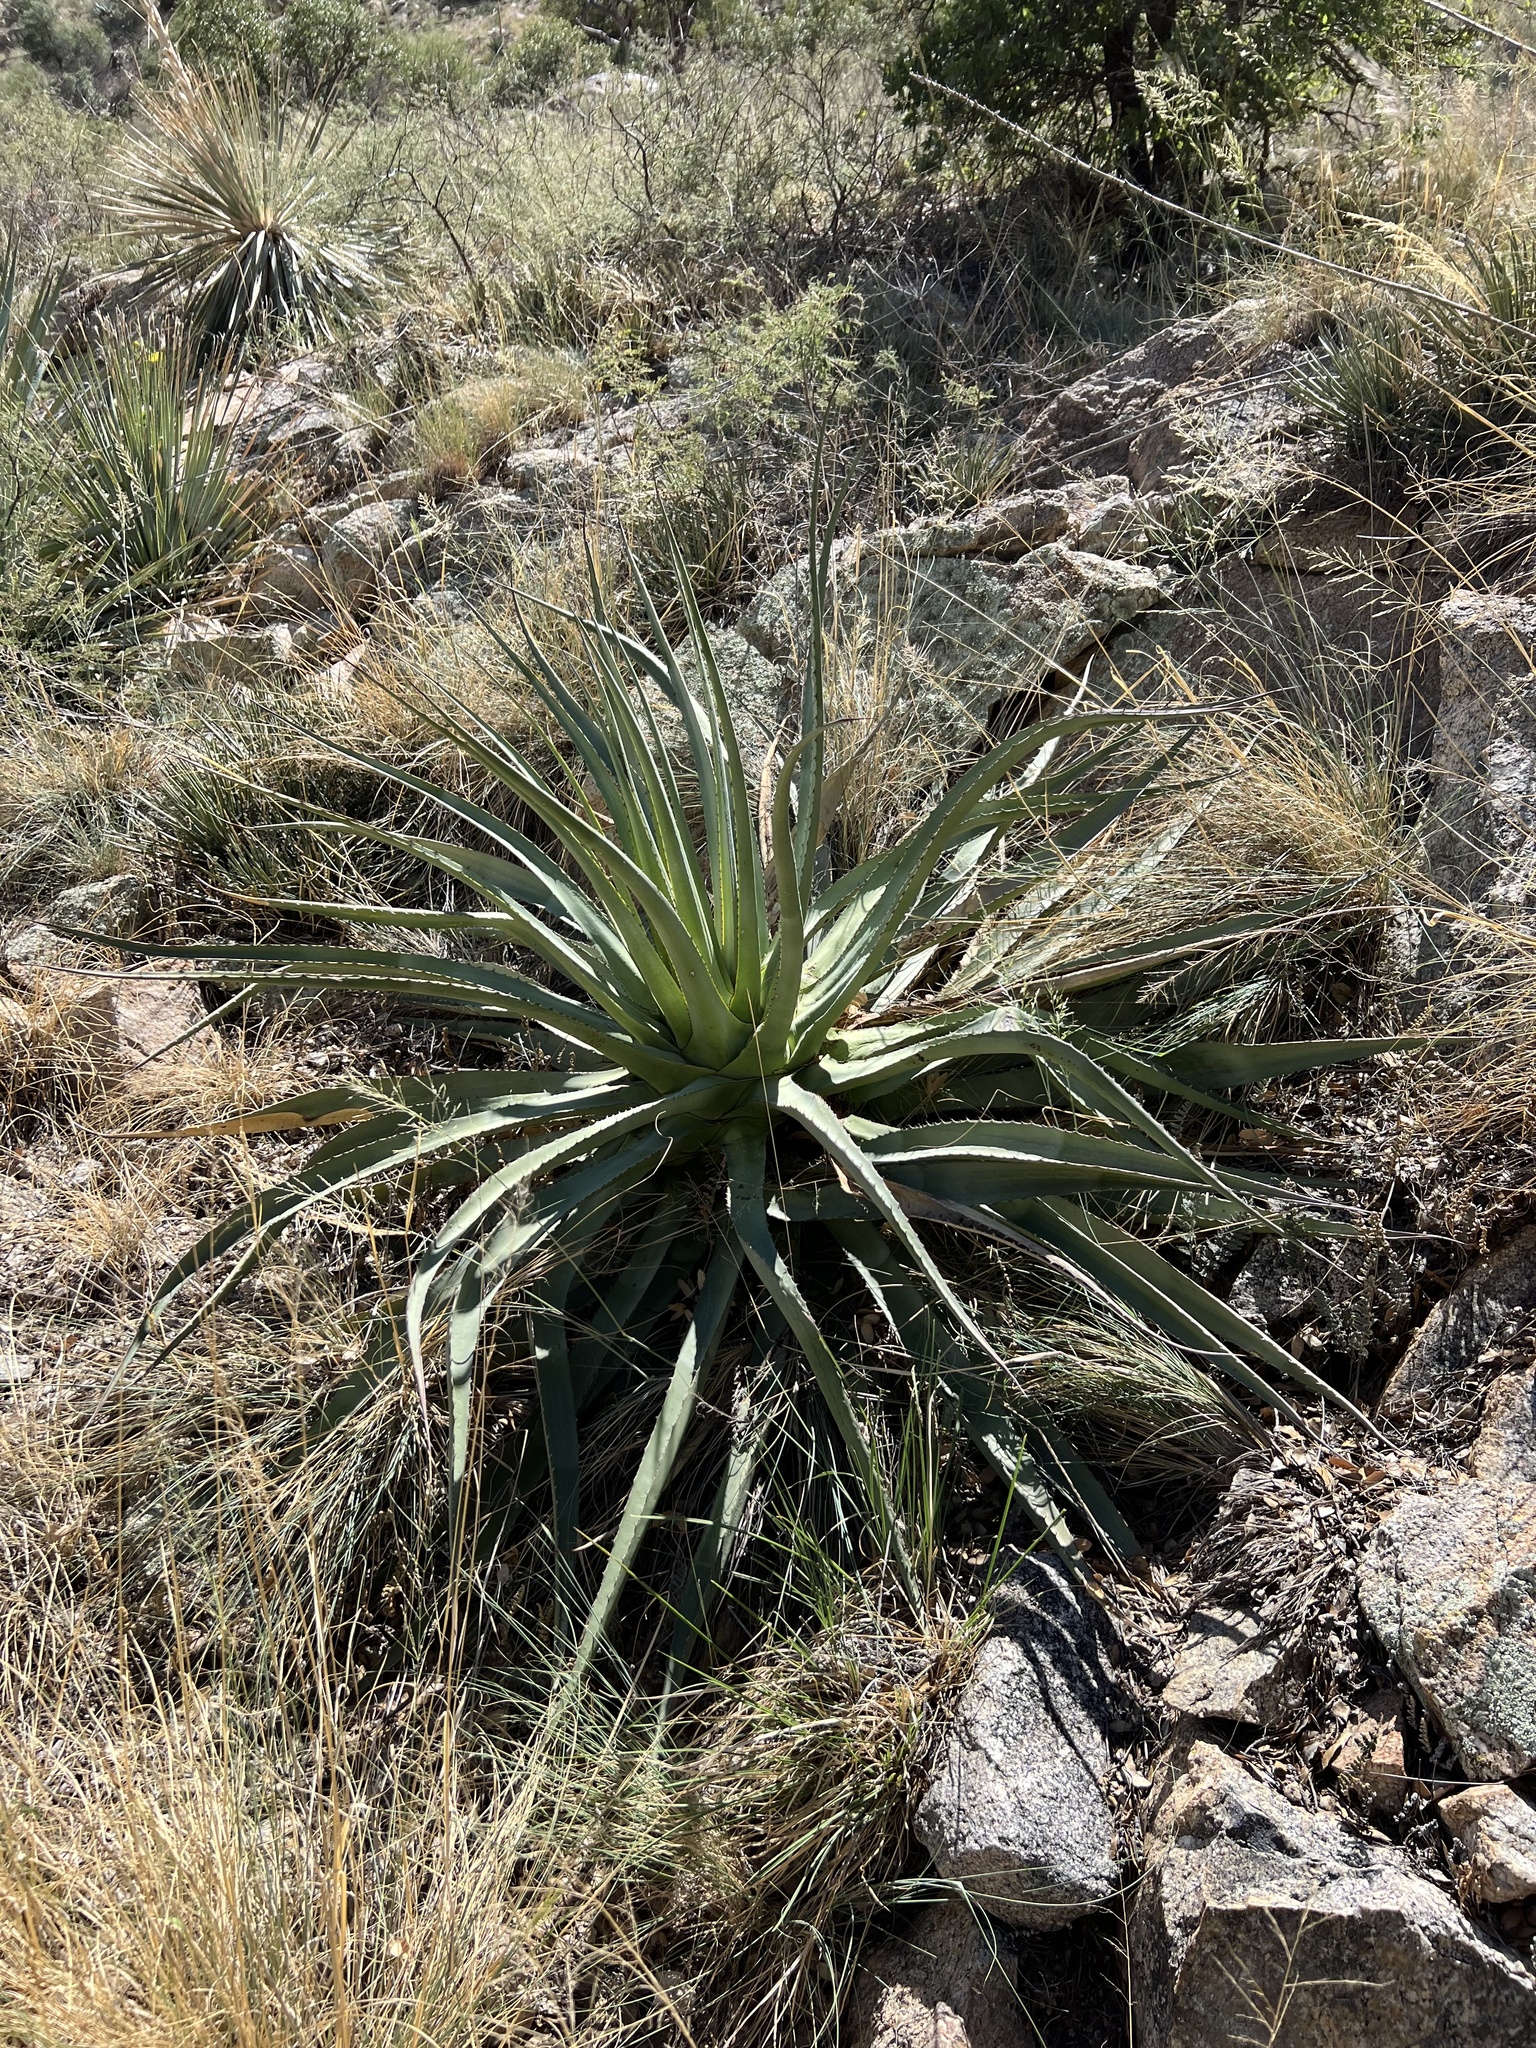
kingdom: Plantae
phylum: Tracheophyta
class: Liliopsida
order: Asparagales
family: Asparagaceae
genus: Agave
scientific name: Agave palmeri
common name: Palmer agave
